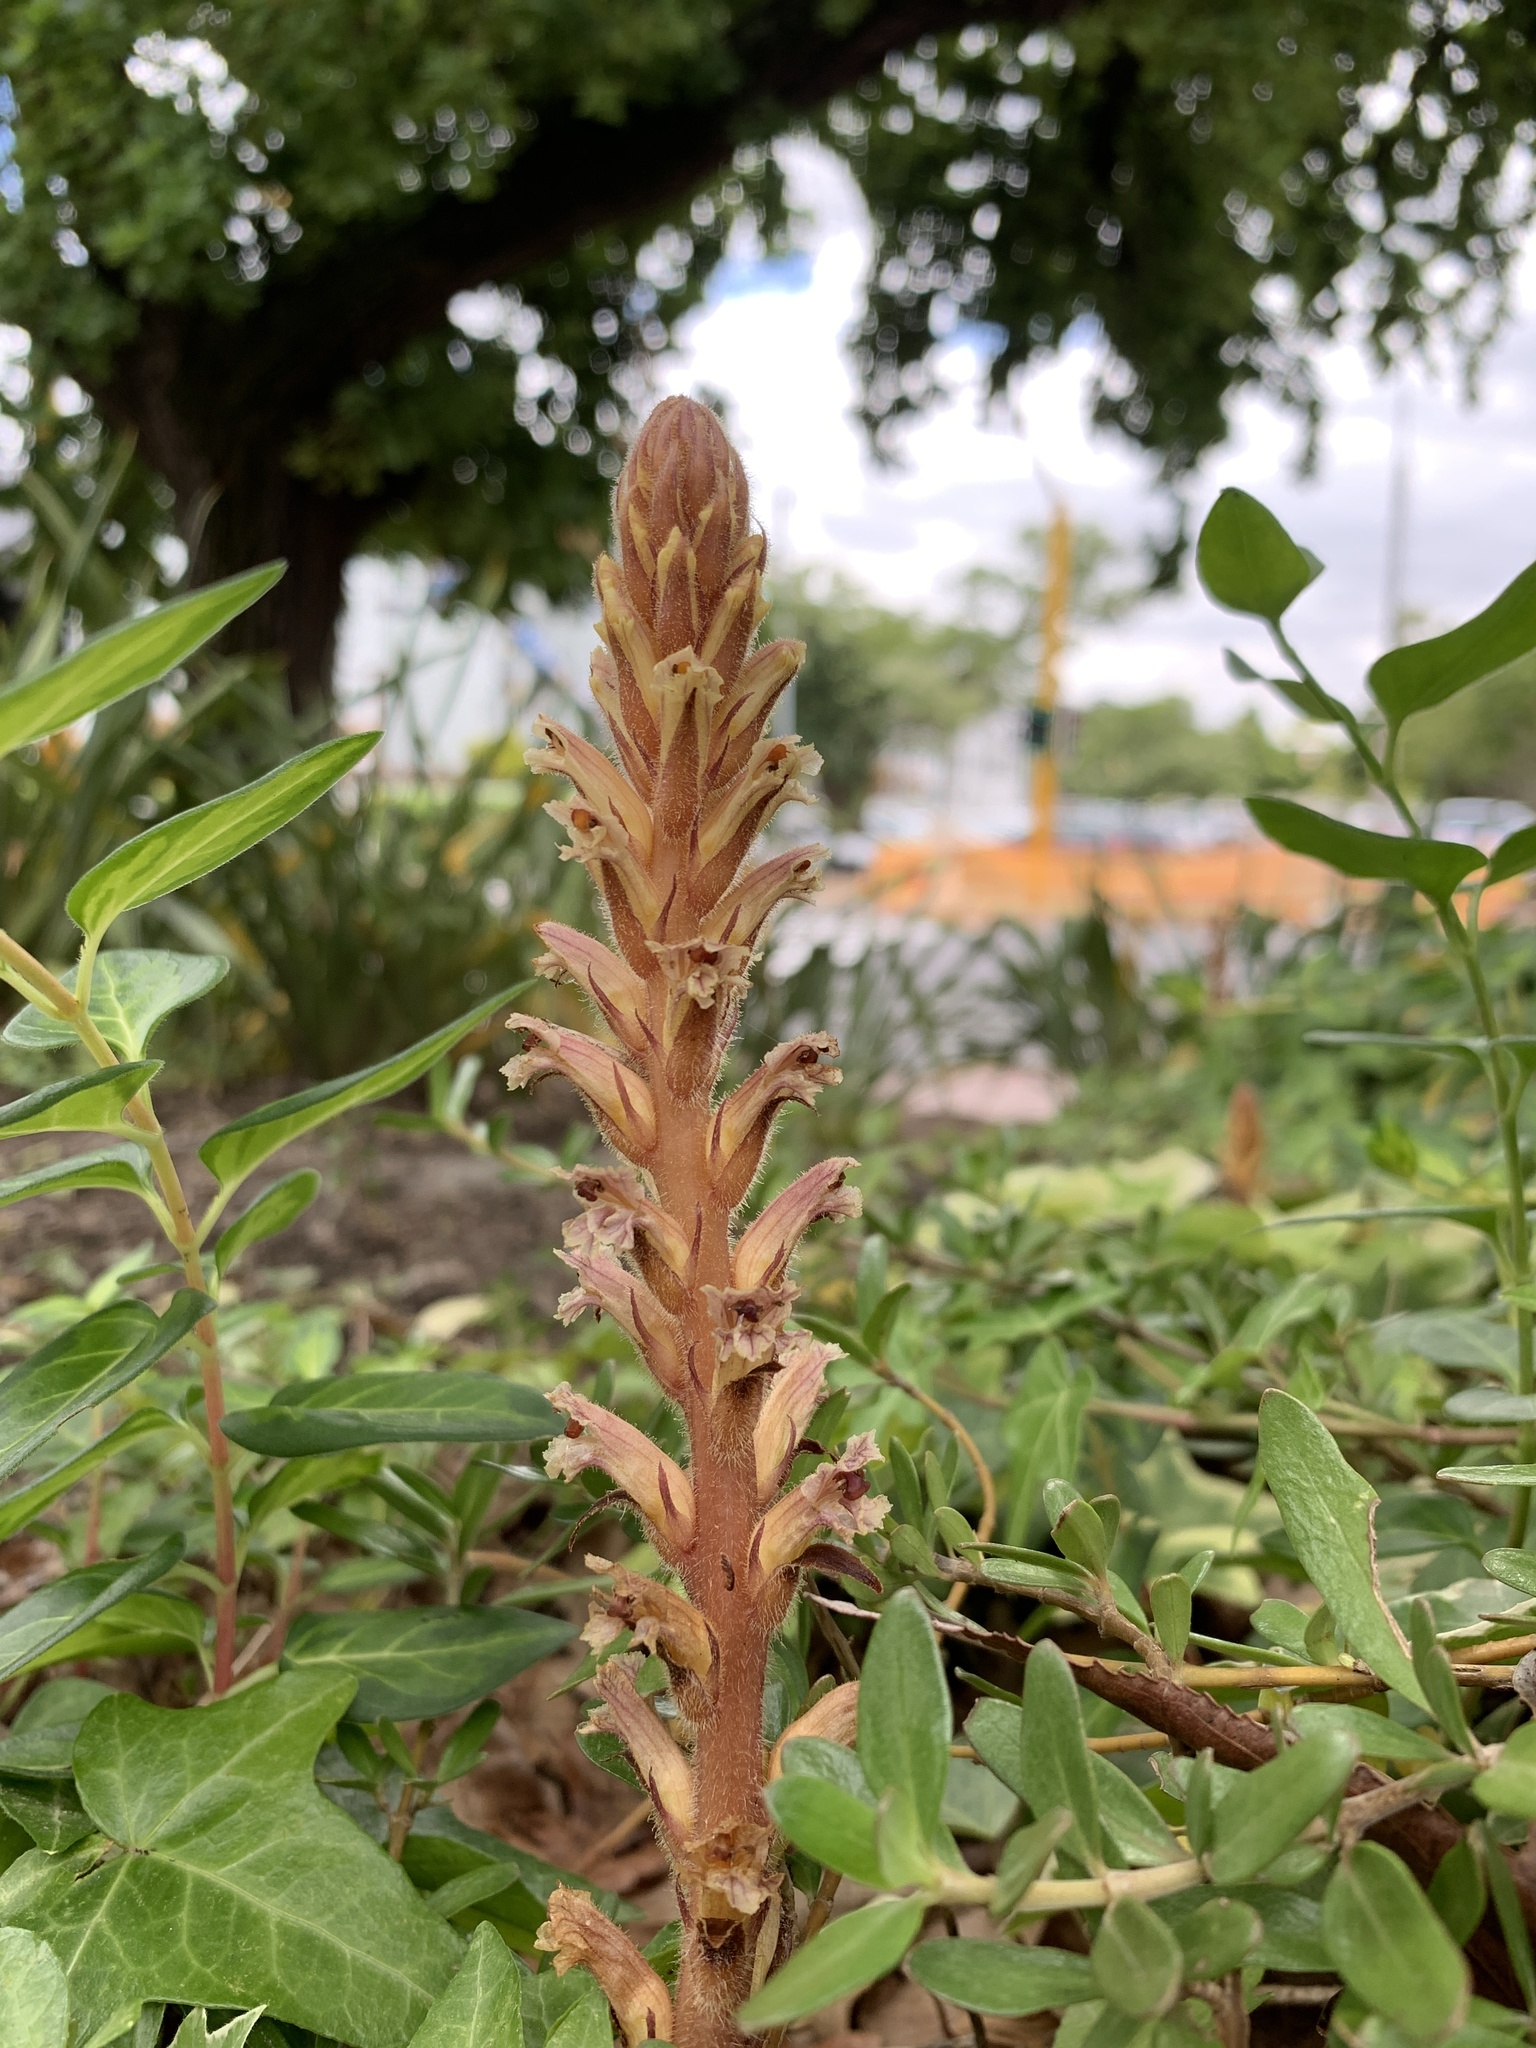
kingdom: Plantae
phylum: Tracheophyta
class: Magnoliopsida
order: Lamiales
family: Orobanchaceae
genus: Orobanche
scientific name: Orobanche hederae
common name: Ivy broomrape
